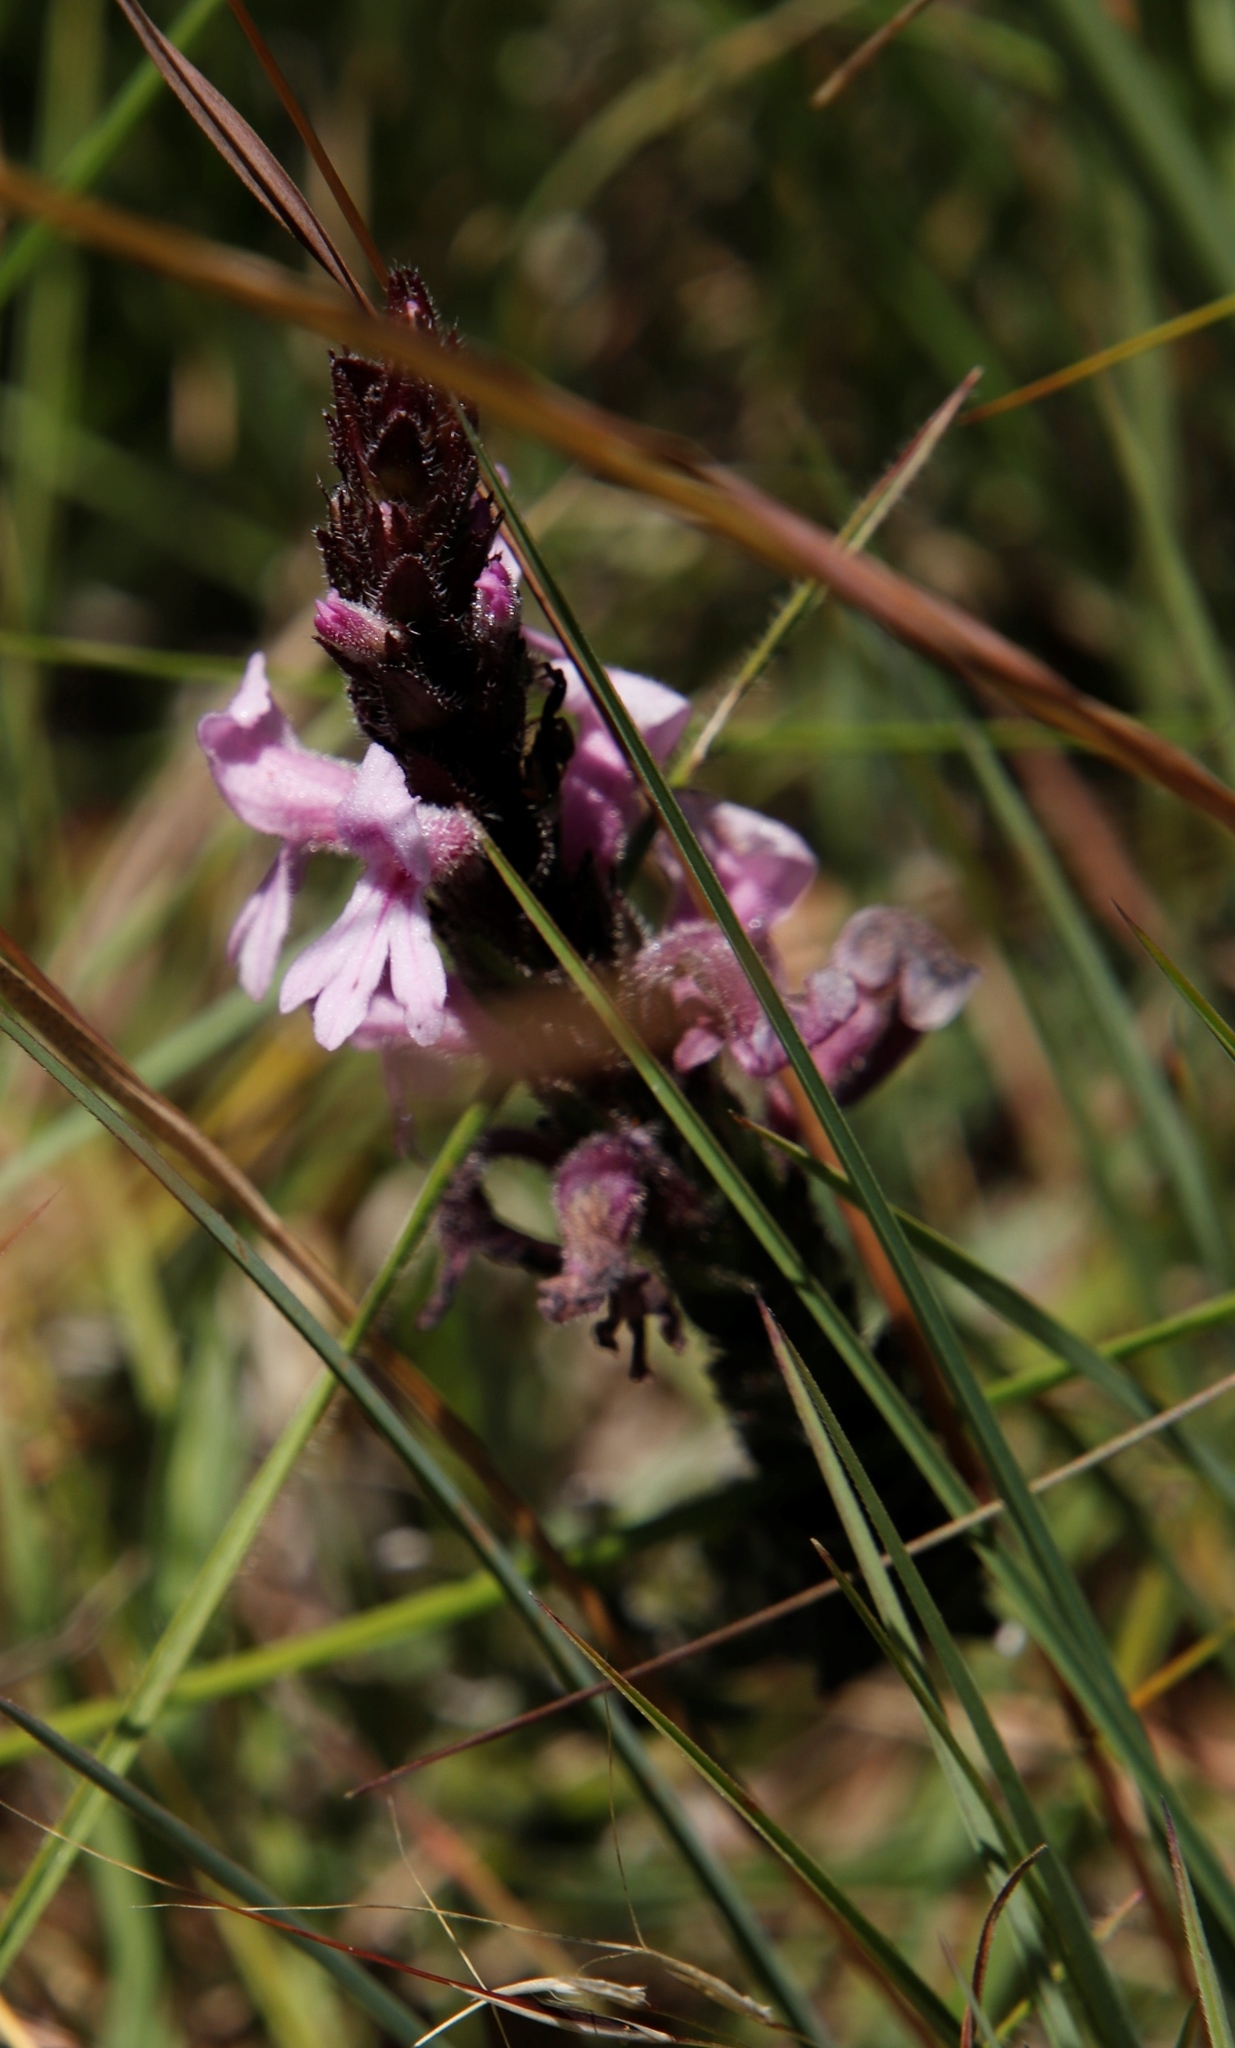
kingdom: Plantae
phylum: Tracheophyta
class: Magnoliopsida
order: Lamiales
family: Orobanchaceae
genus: Striga
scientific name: Striga bilabiata
